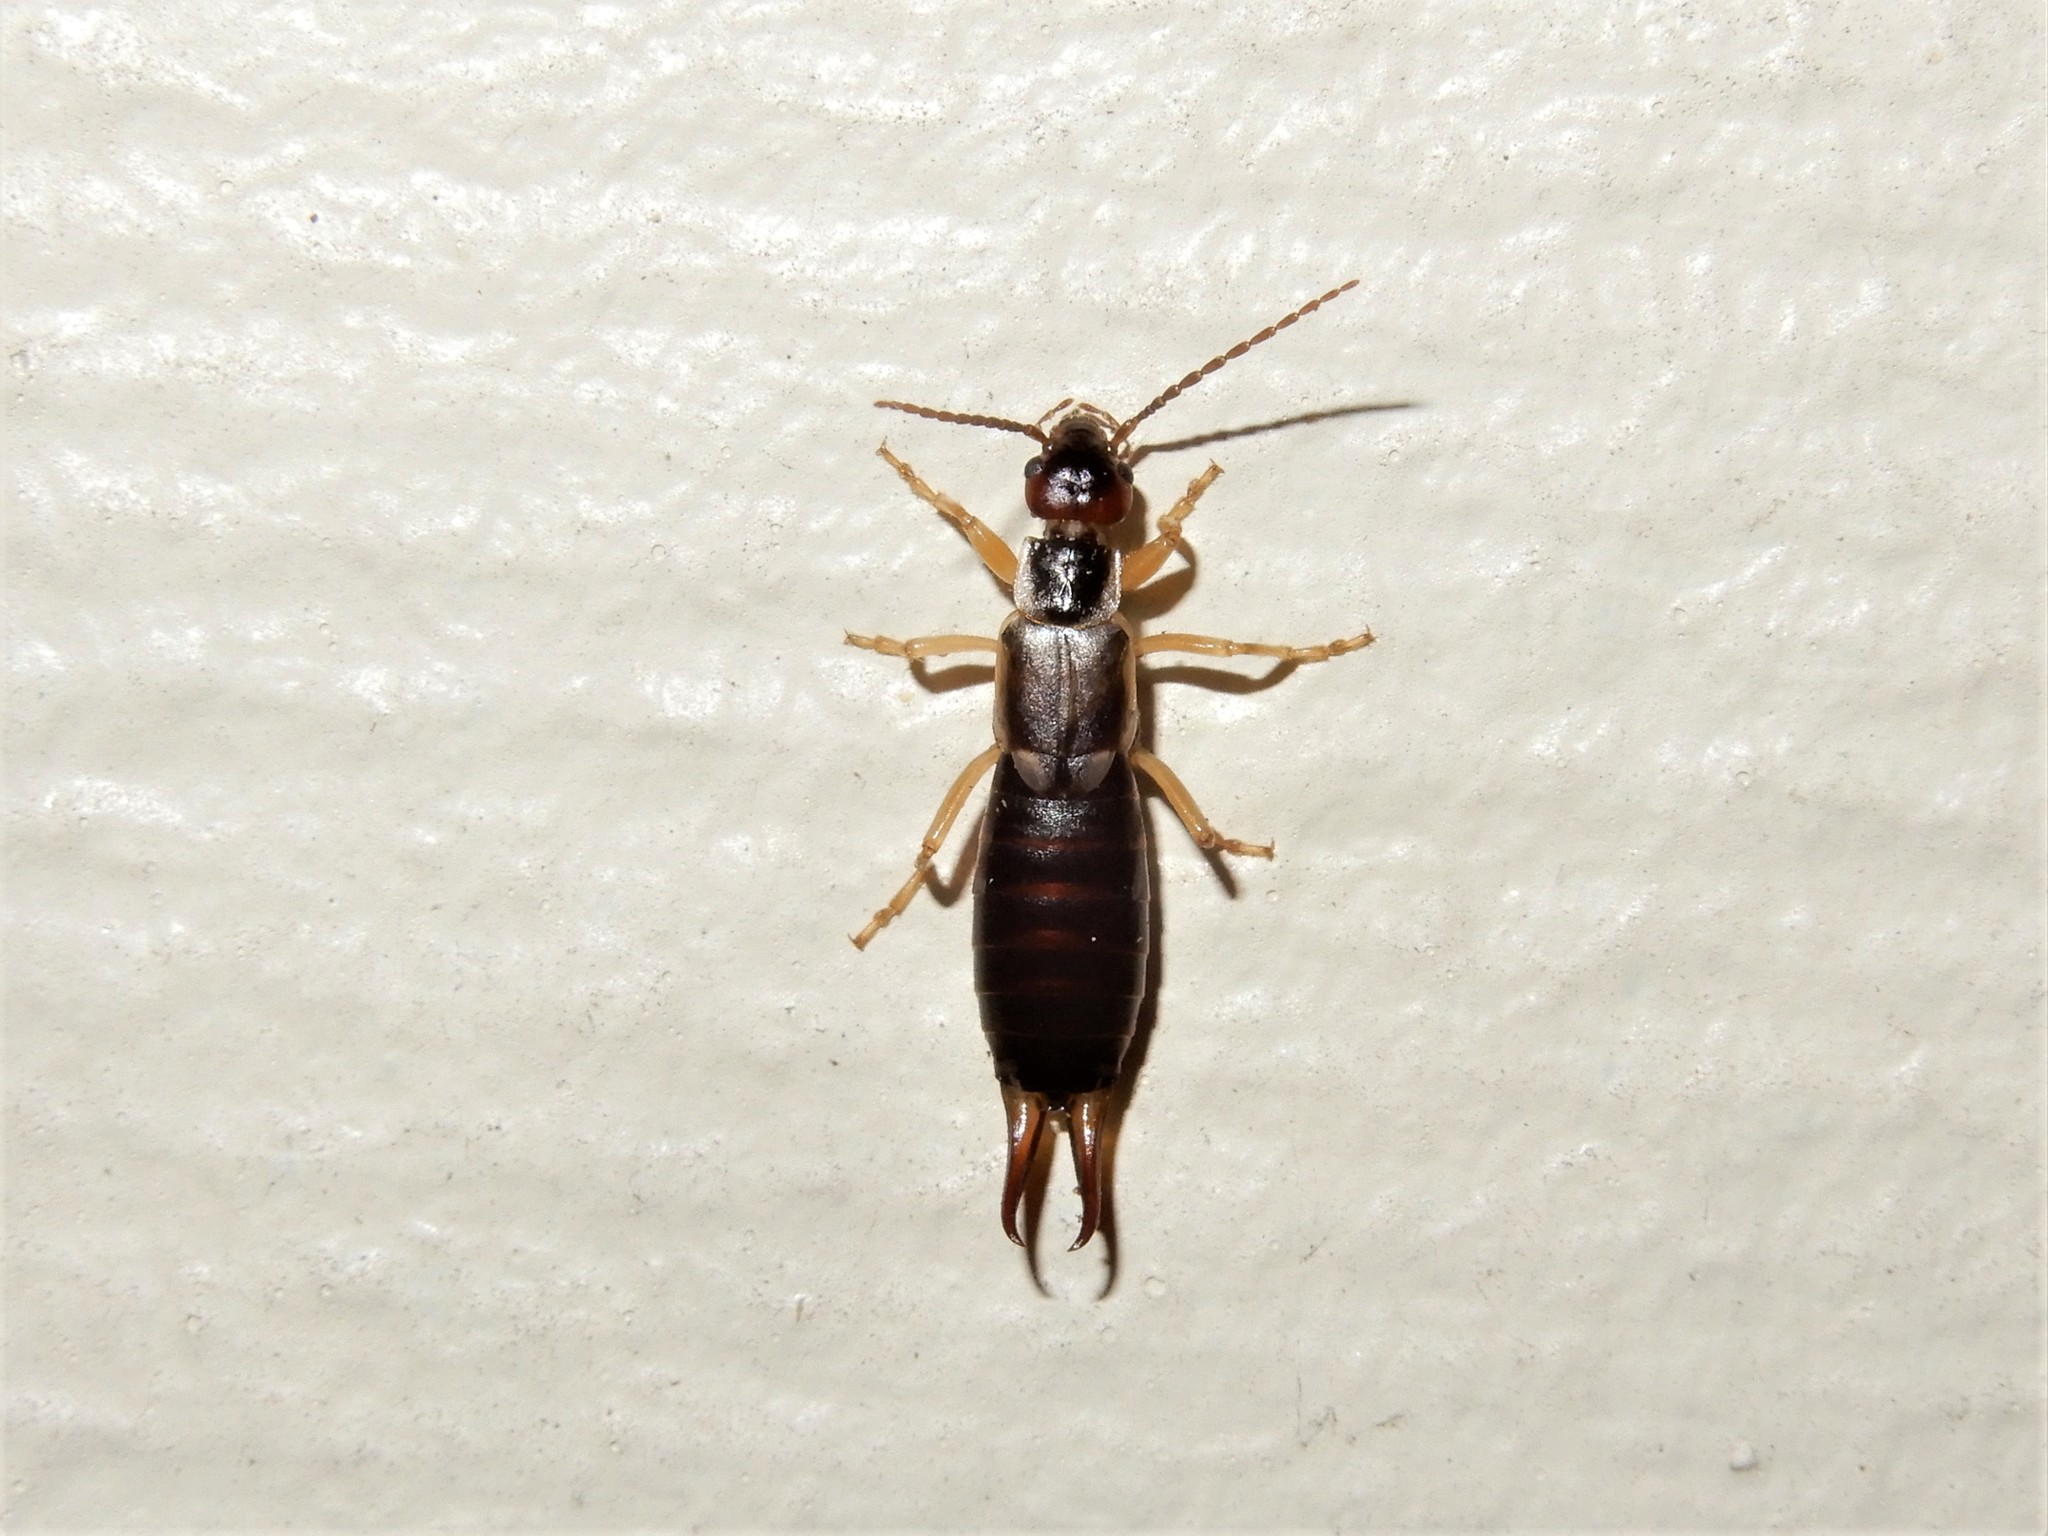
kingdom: Animalia
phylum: Arthropoda
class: Insecta
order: Dermaptera
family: Forficulidae
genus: Forficula
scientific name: Forficula
